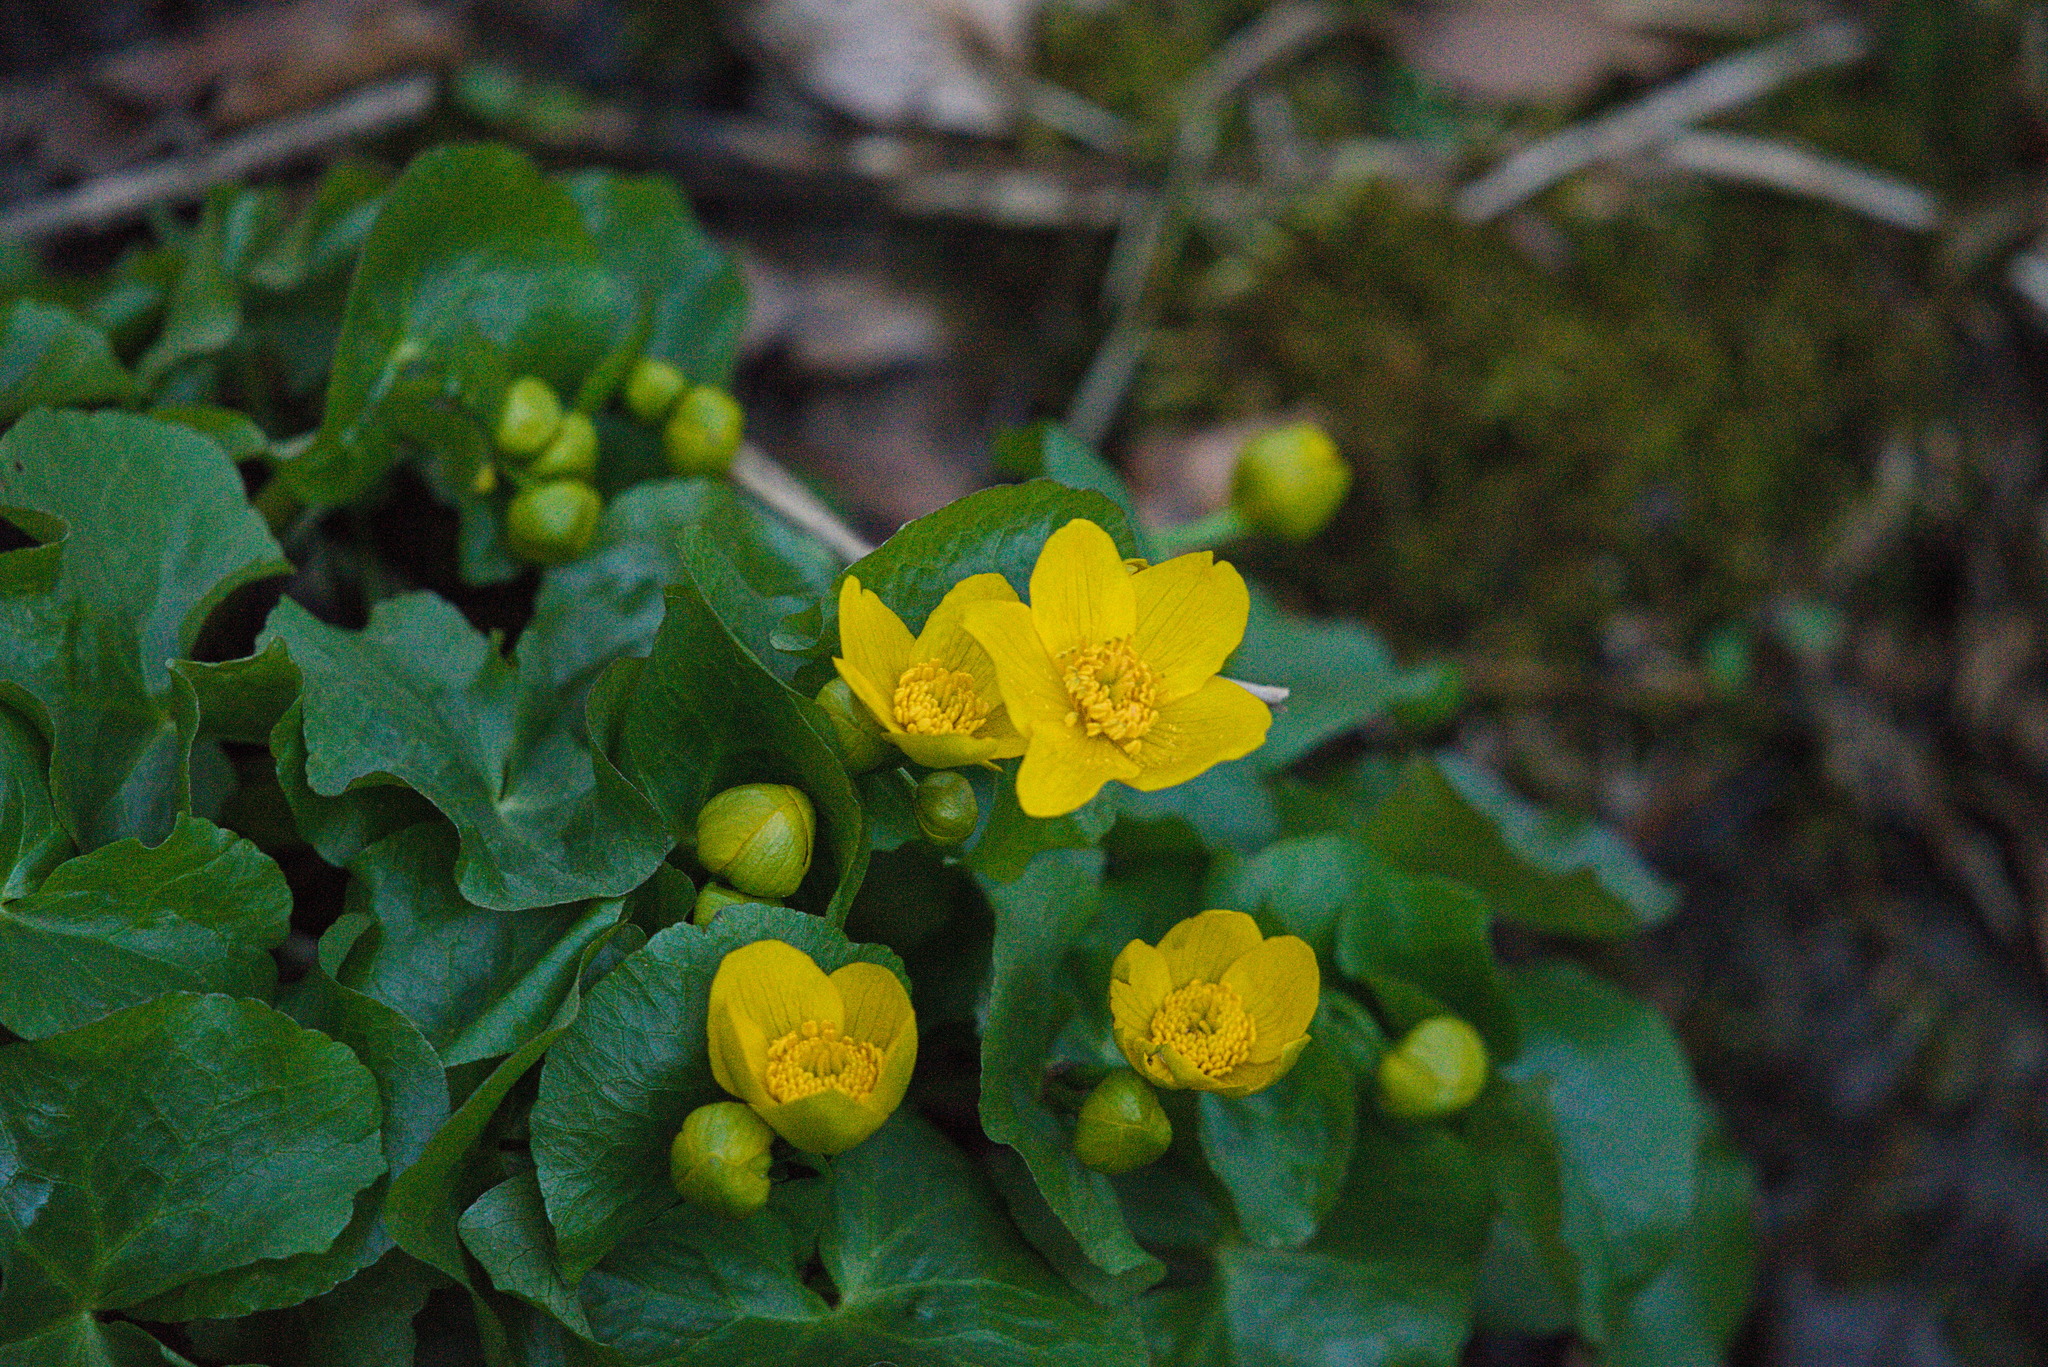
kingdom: Plantae
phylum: Tracheophyta
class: Magnoliopsida
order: Ranunculales
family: Ranunculaceae
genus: Caltha
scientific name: Caltha palustris
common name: Marsh marigold
